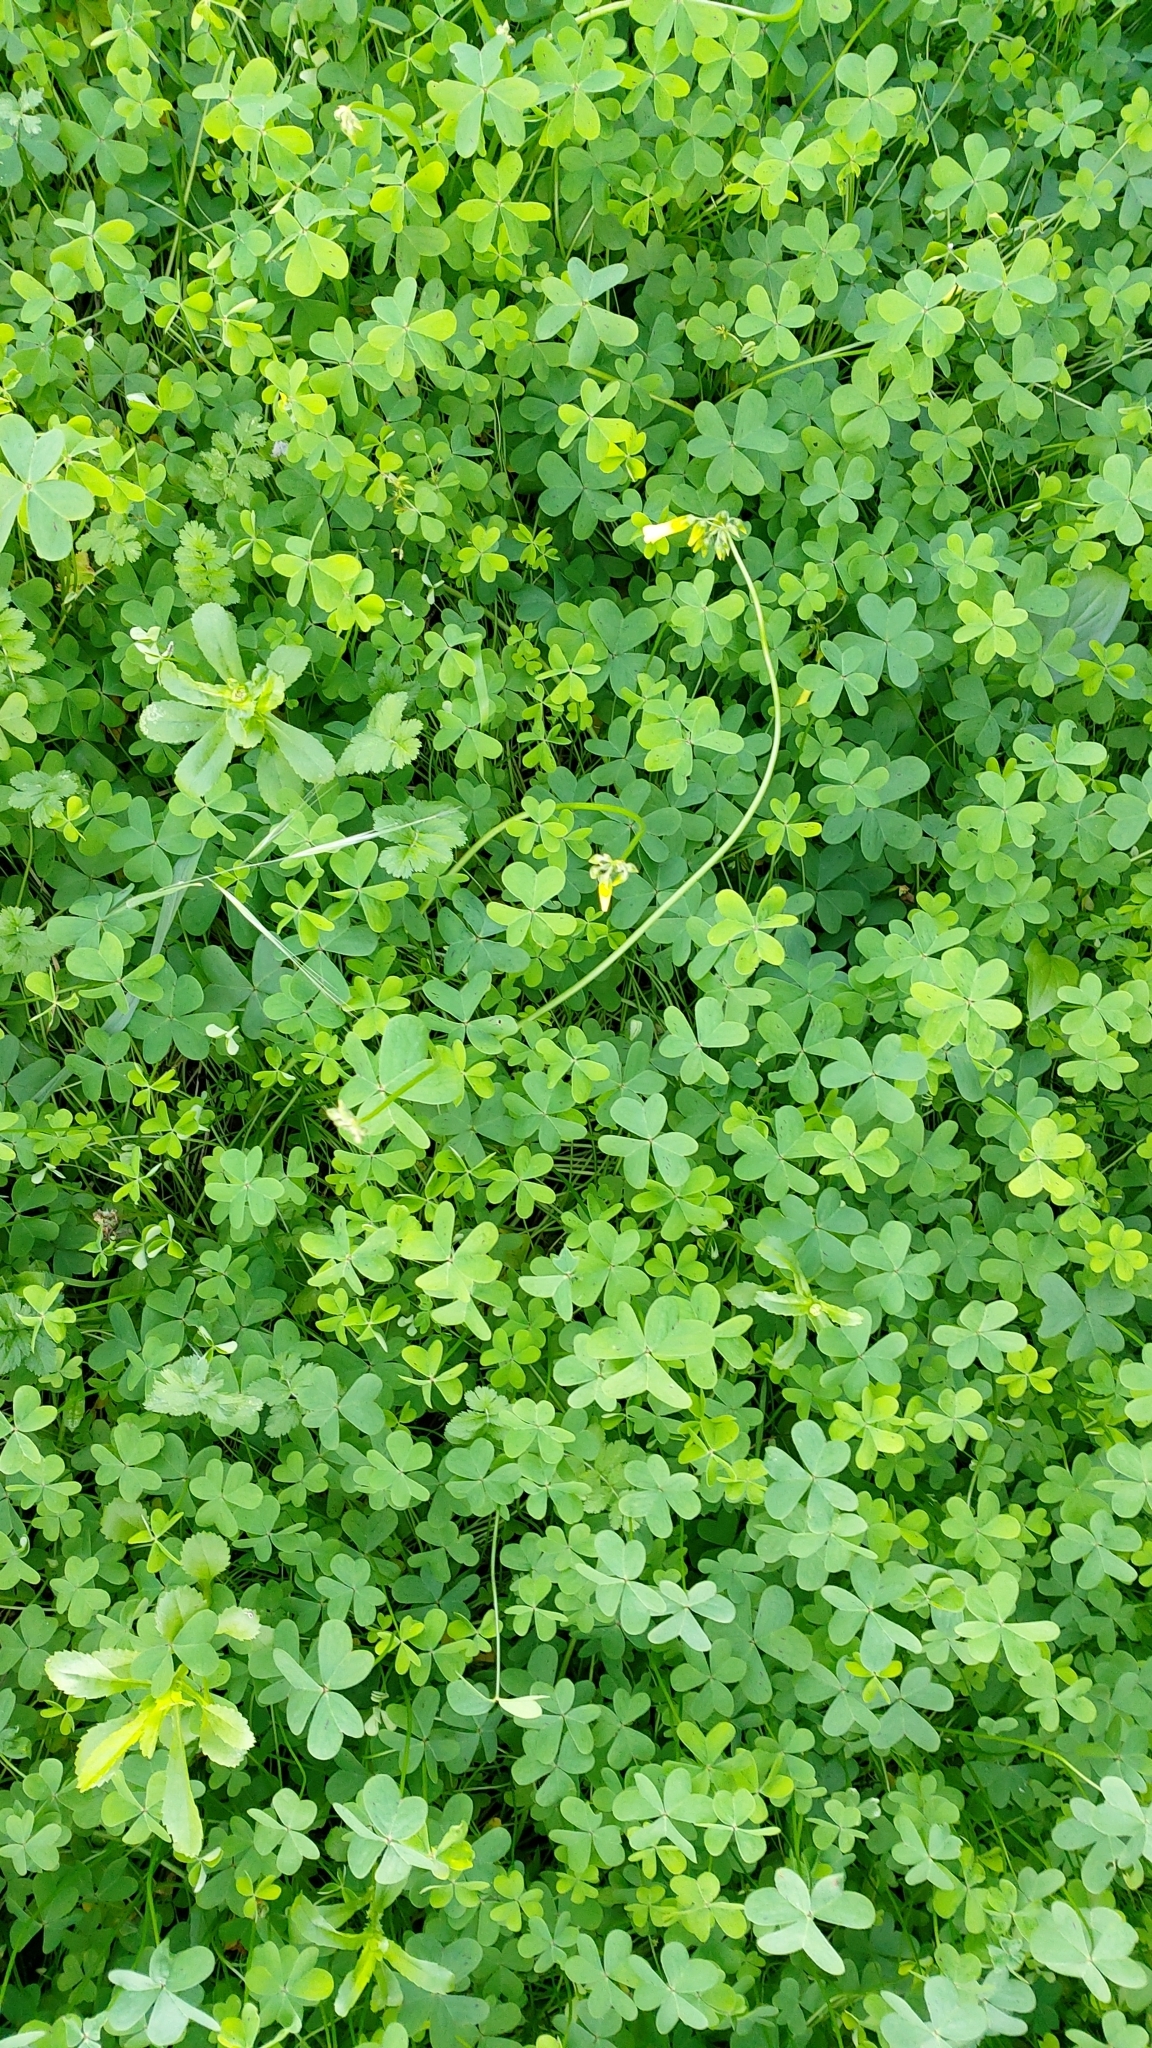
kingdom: Plantae
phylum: Tracheophyta
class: Magnoliopsida
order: Oxalidales
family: Oxalidaceae
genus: Oxalis
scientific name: Oxalis pes-caprae
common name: Bermuda-buttercup
